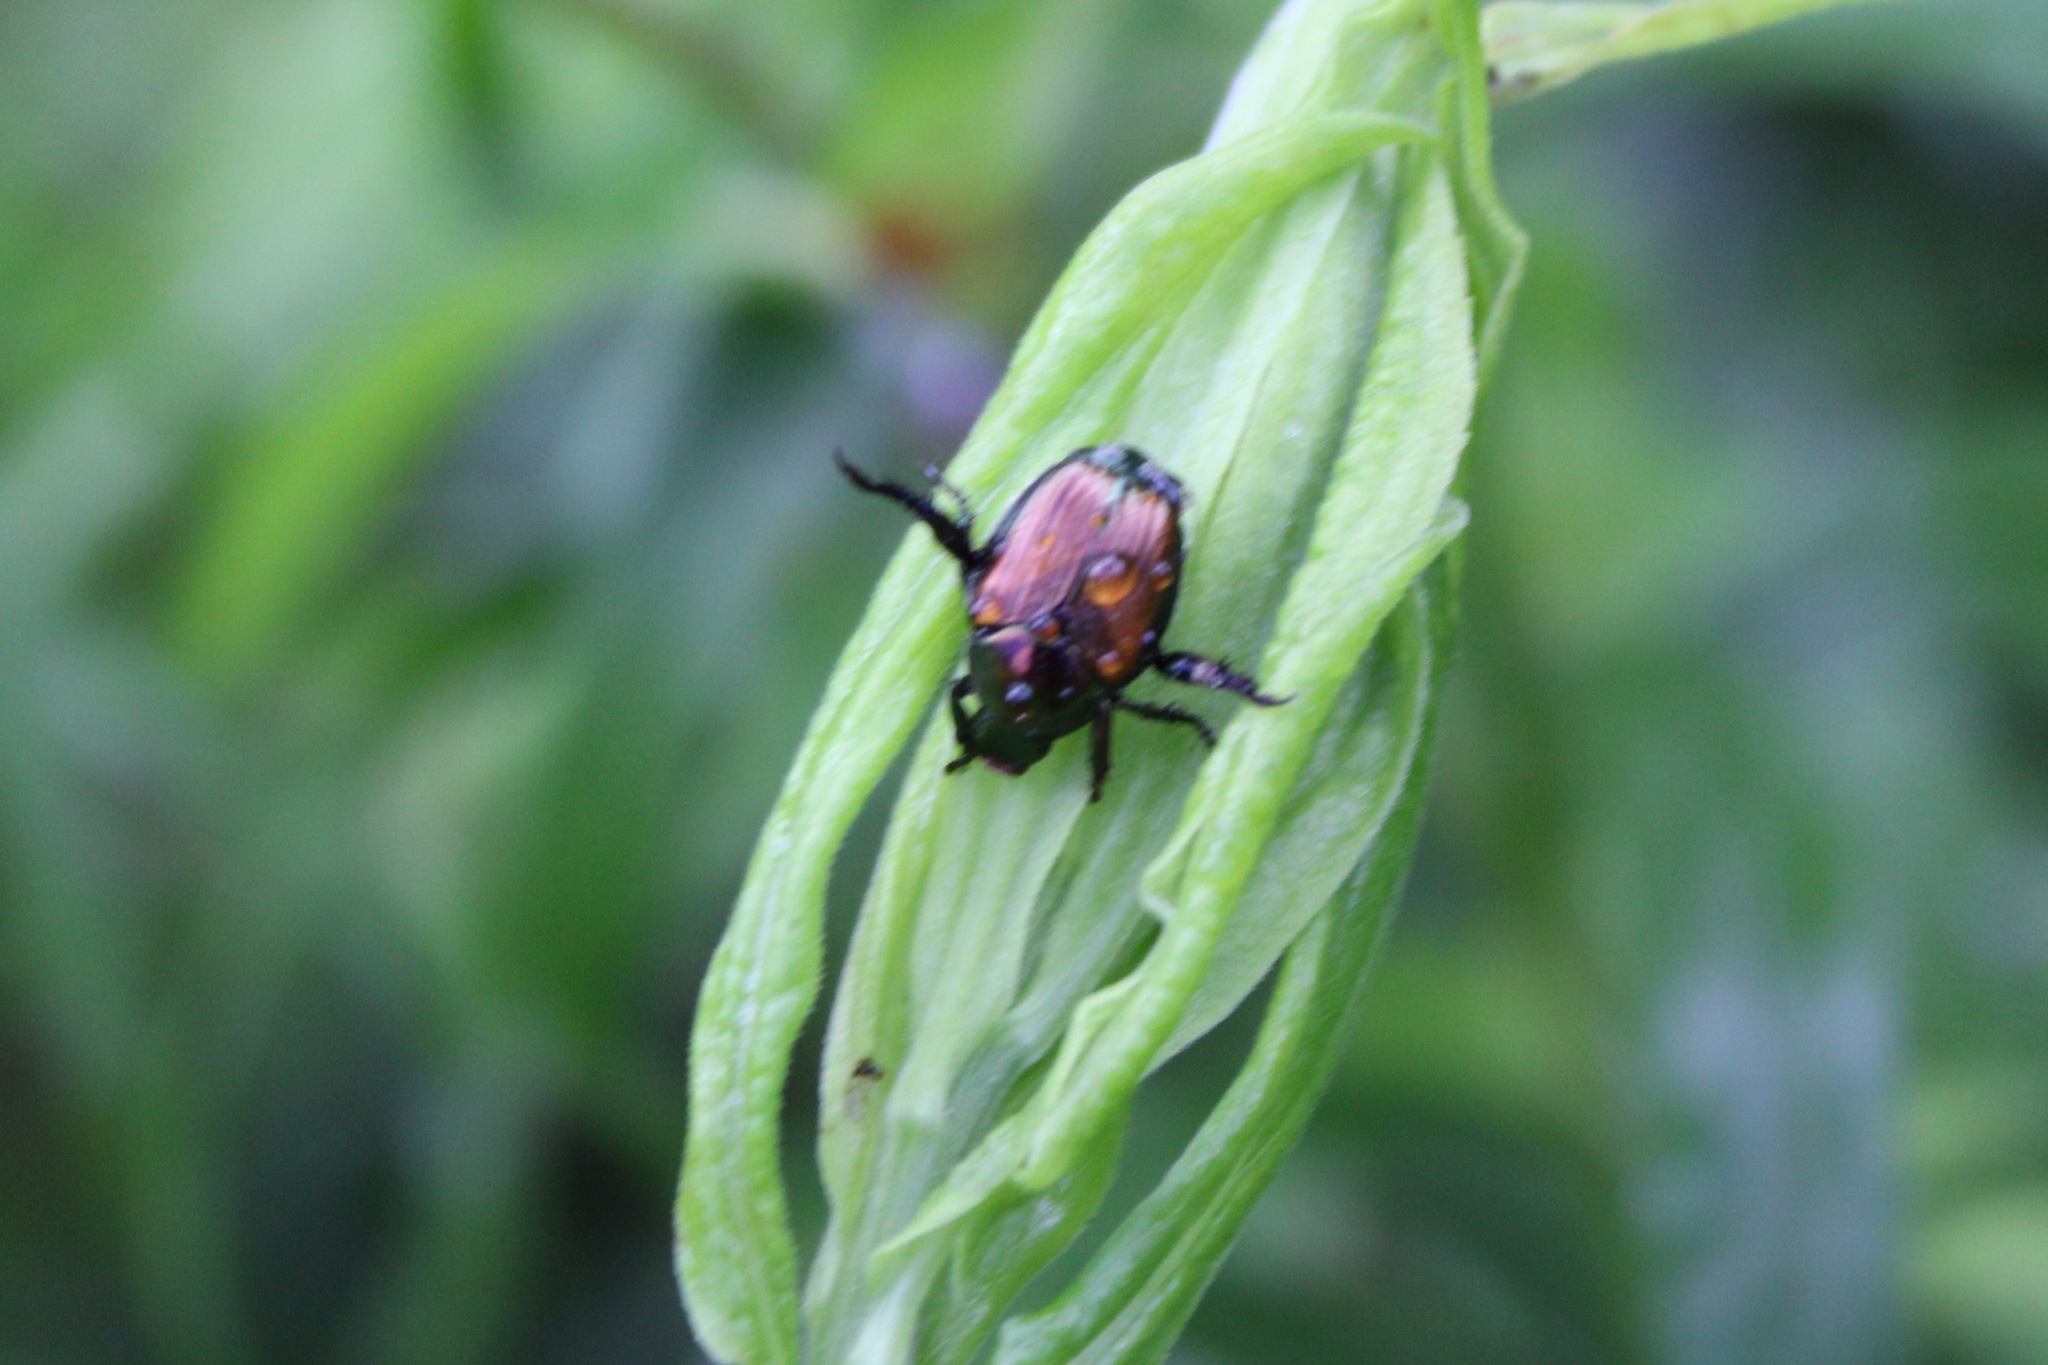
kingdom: Animalia
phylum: Arthropoda
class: Insecta
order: Coleoptera
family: Scarabaeidae
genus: Popillia
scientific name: Popillia japonica
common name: Japanese beetle
